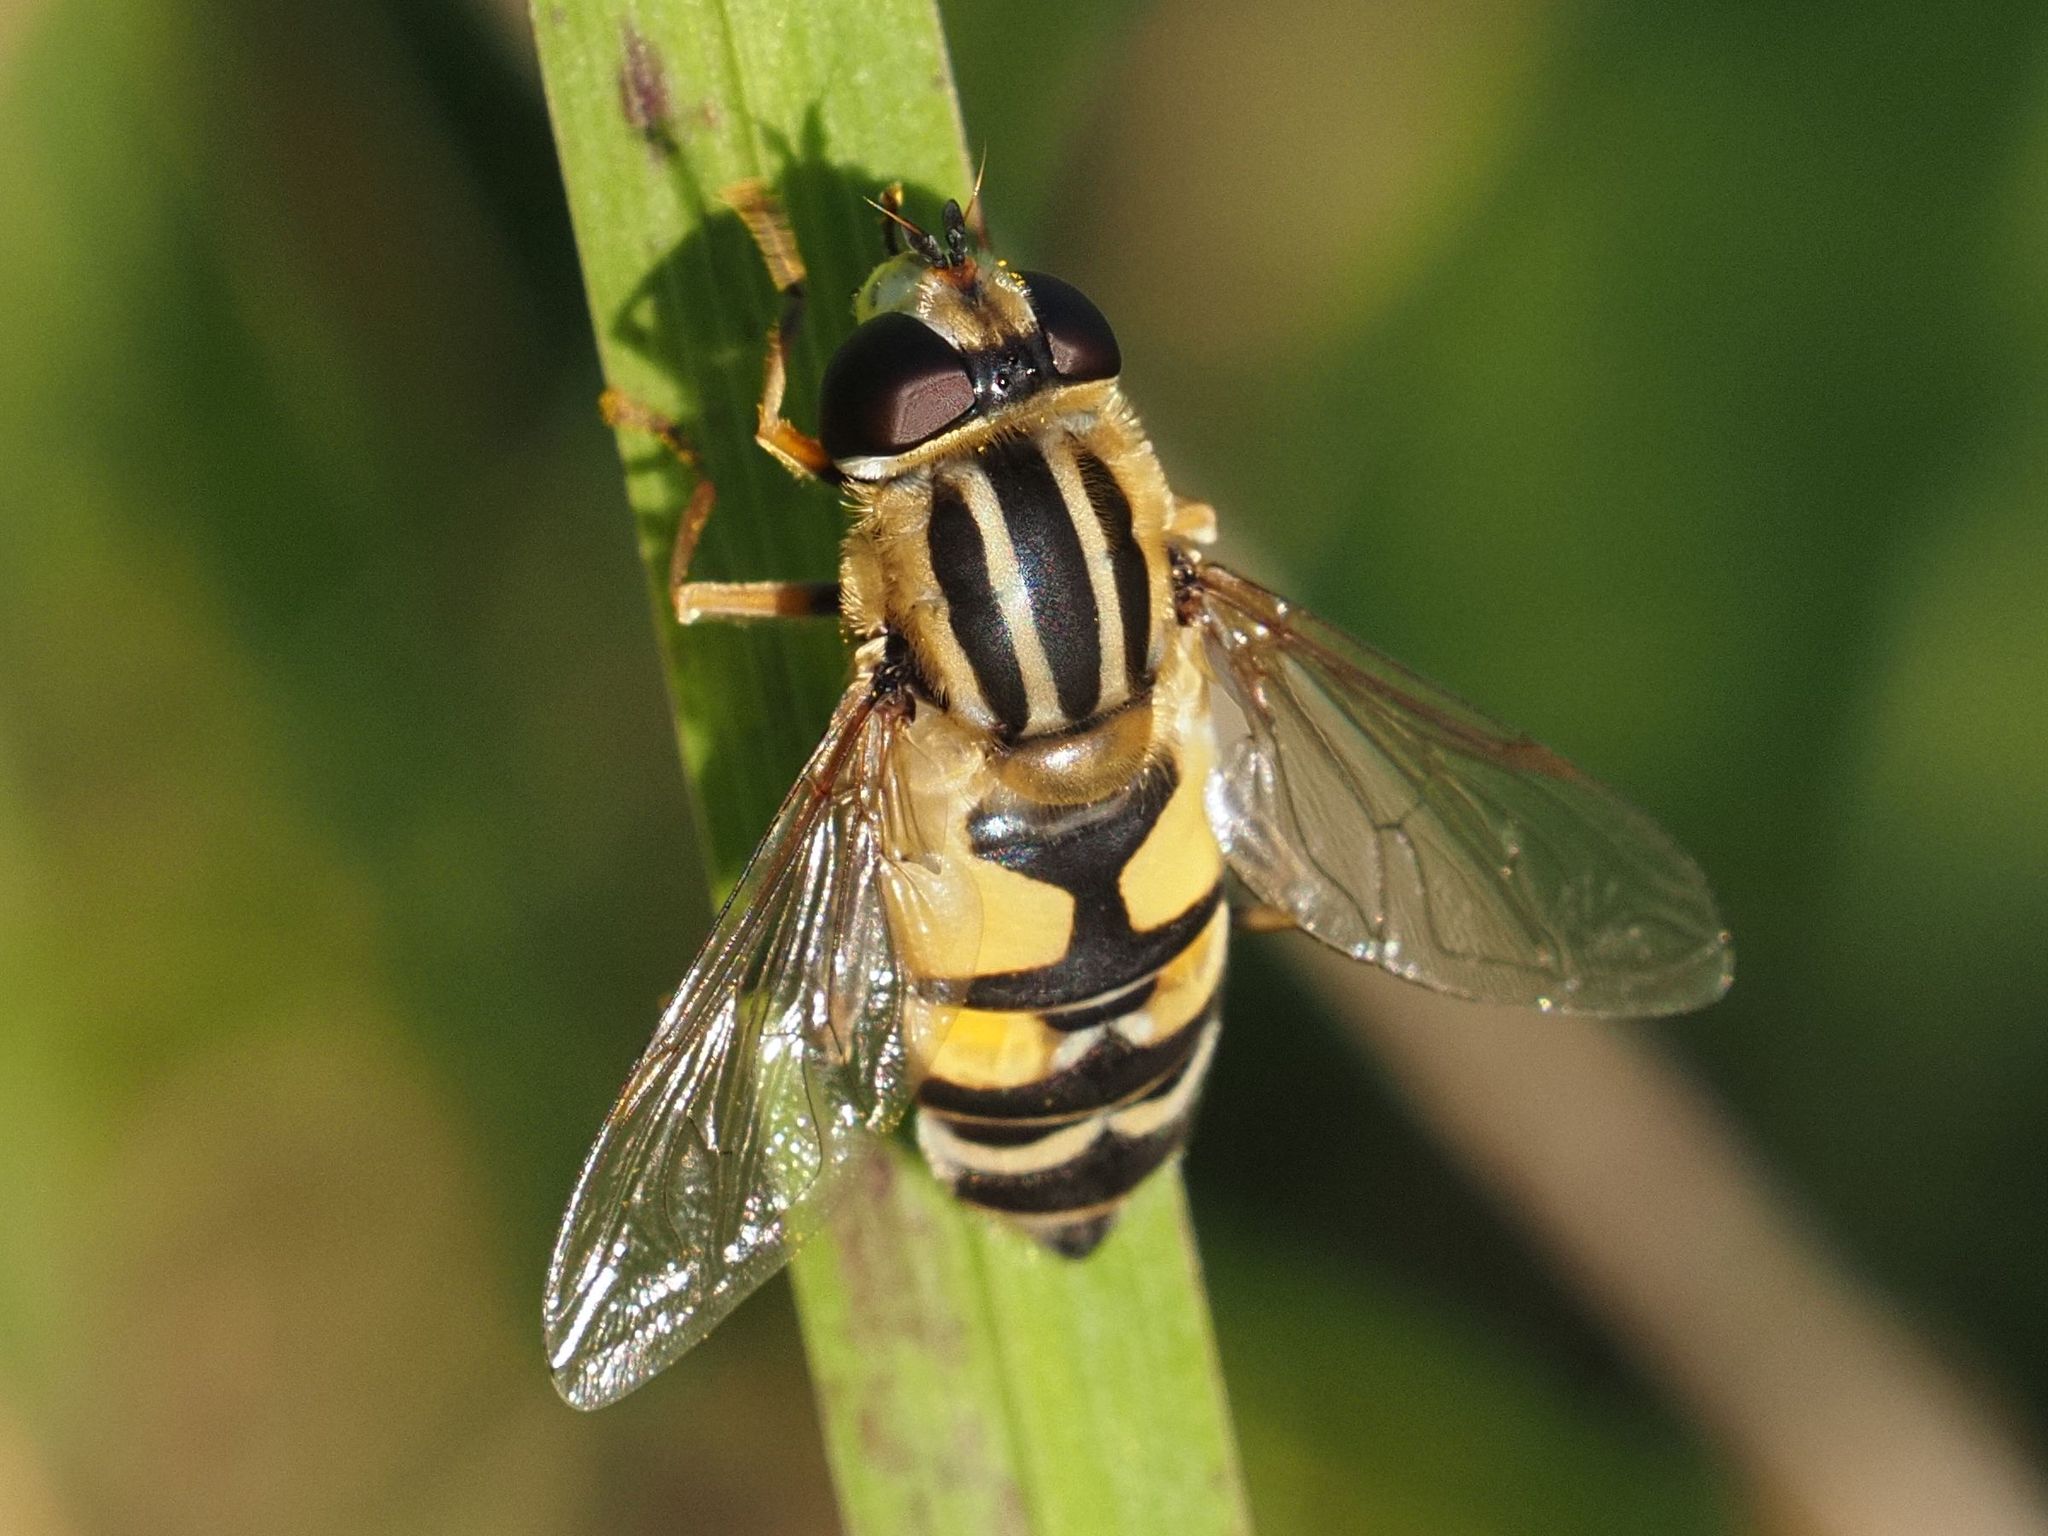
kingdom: Animalia
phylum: Arthropoda
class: Insecta
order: Diptera
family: Syrphidae
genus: Helophilus
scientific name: Helophilus trivittatus
